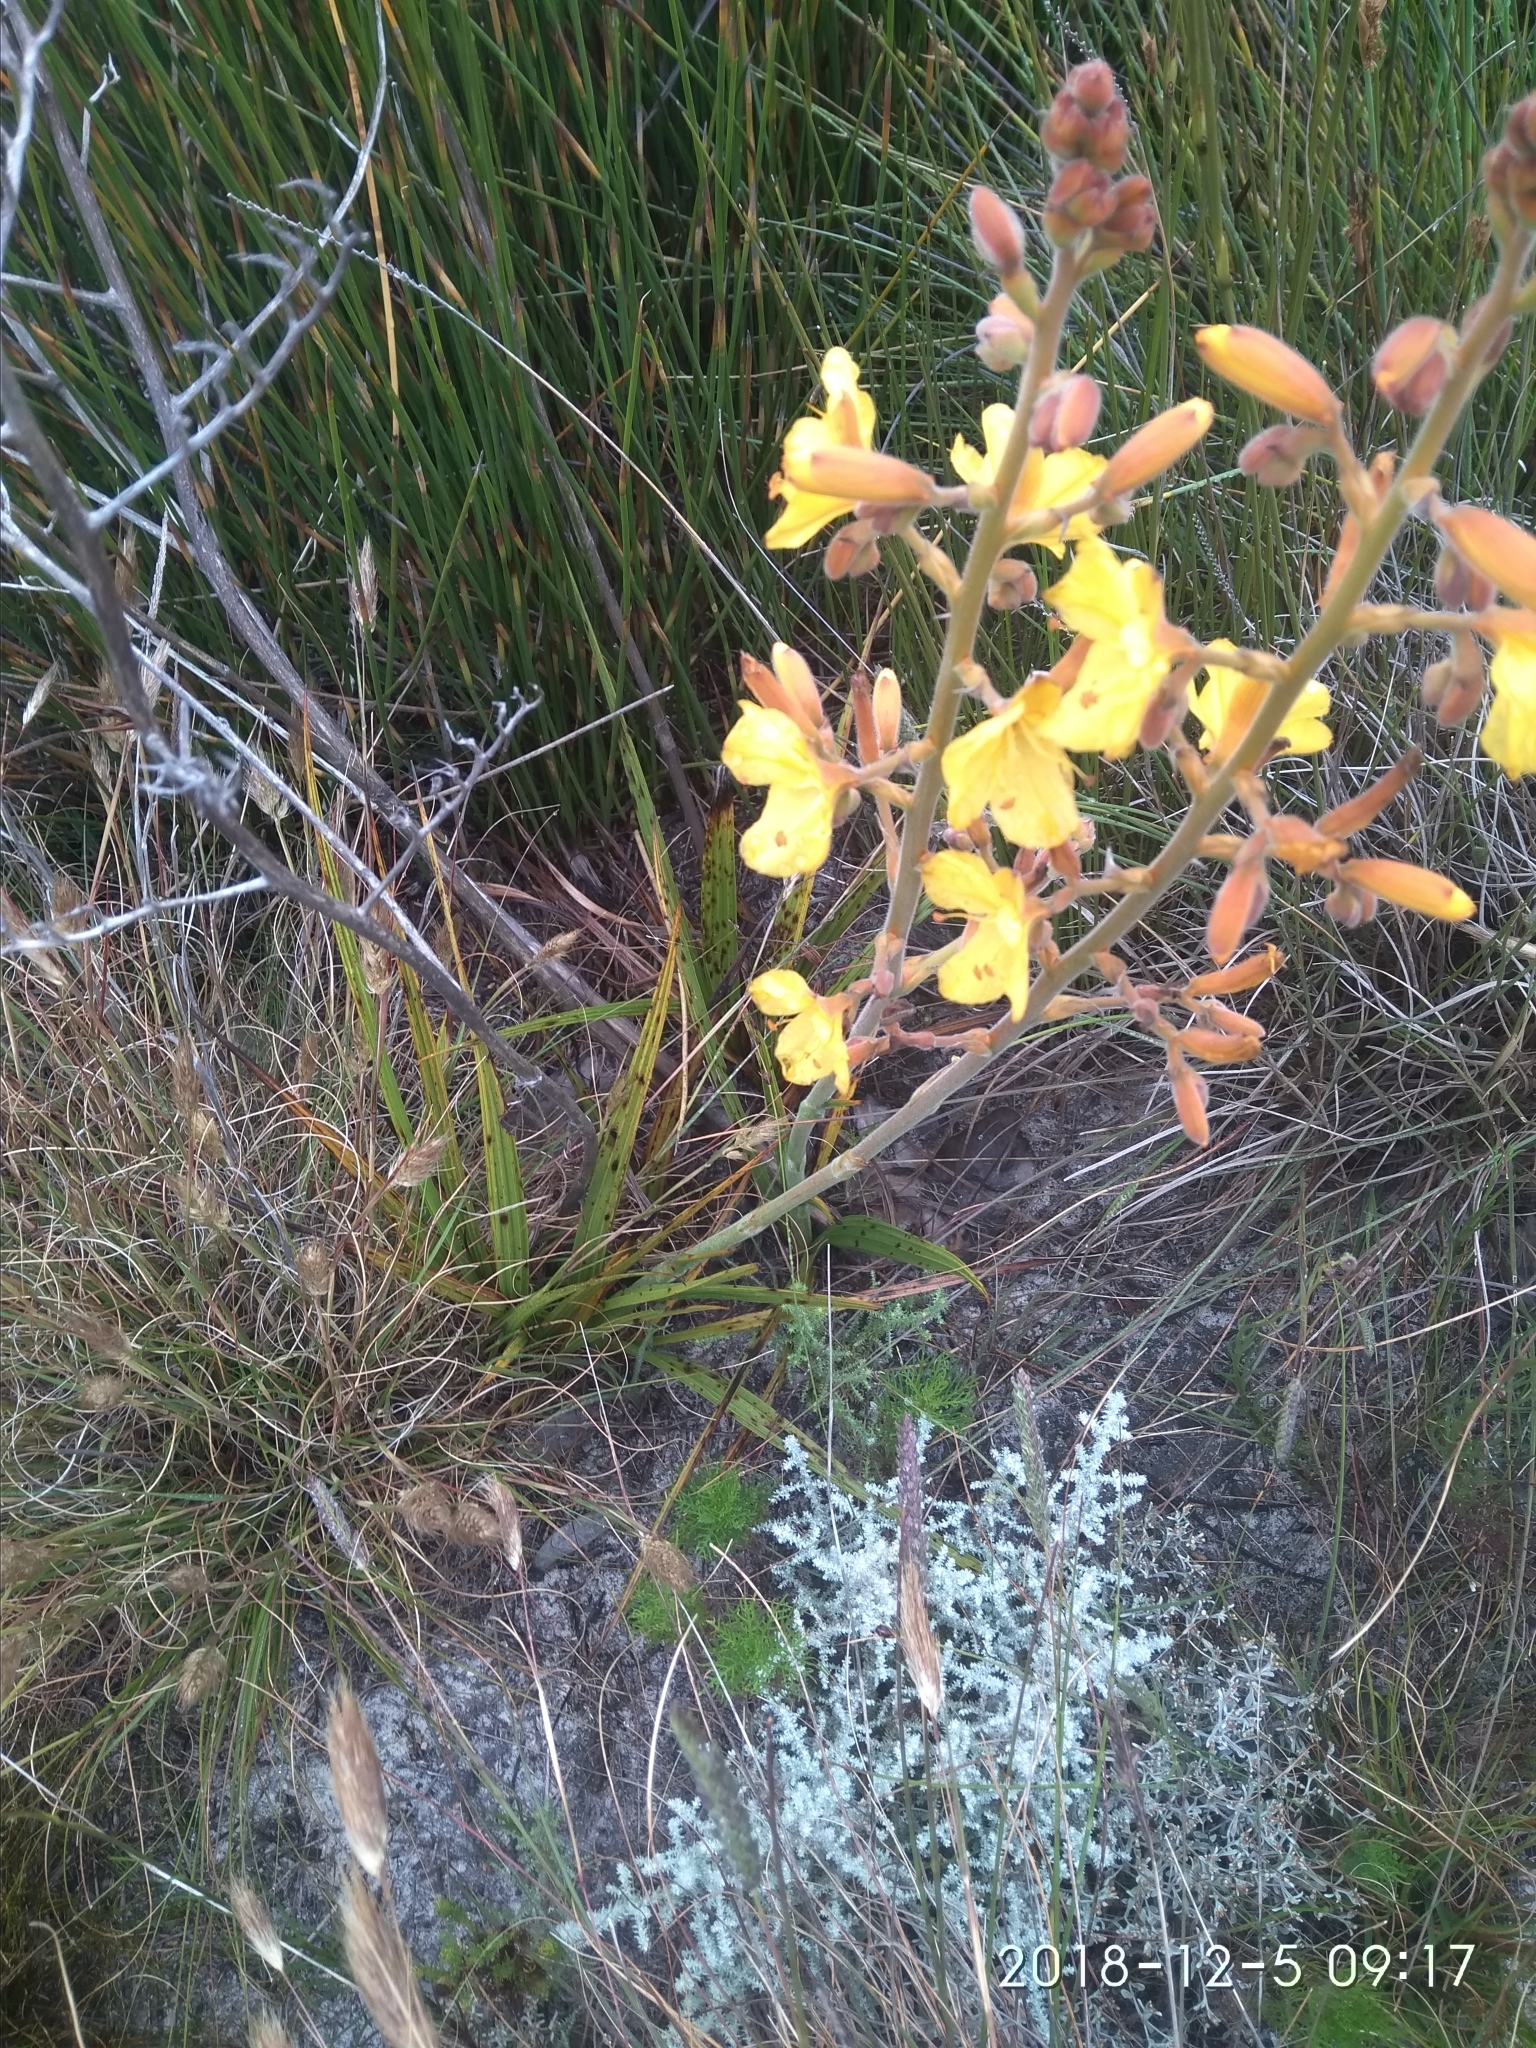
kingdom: Plantae
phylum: Tracheophyta
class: Liliopsida
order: Commelinales
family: Haemodoraceae
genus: Wachendorfia
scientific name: Wachendorfia paniculata
